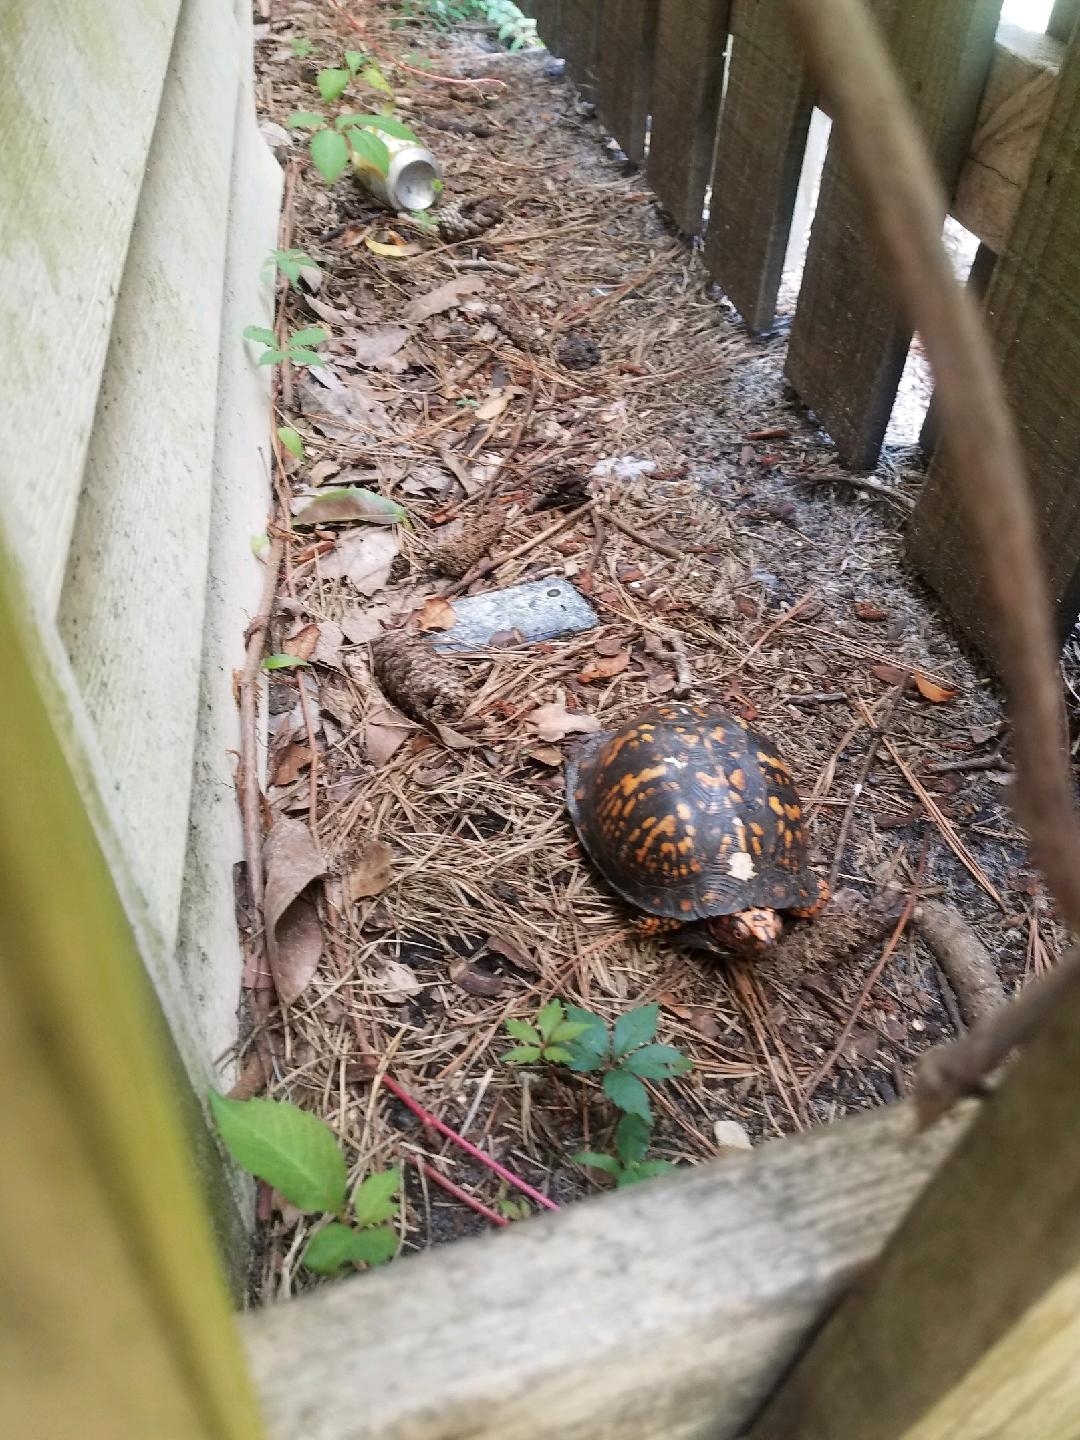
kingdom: Animalia
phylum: Chordata
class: Testudines
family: Emydidae
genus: Terrapene
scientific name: Terrapene carolina
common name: Common box turtle
